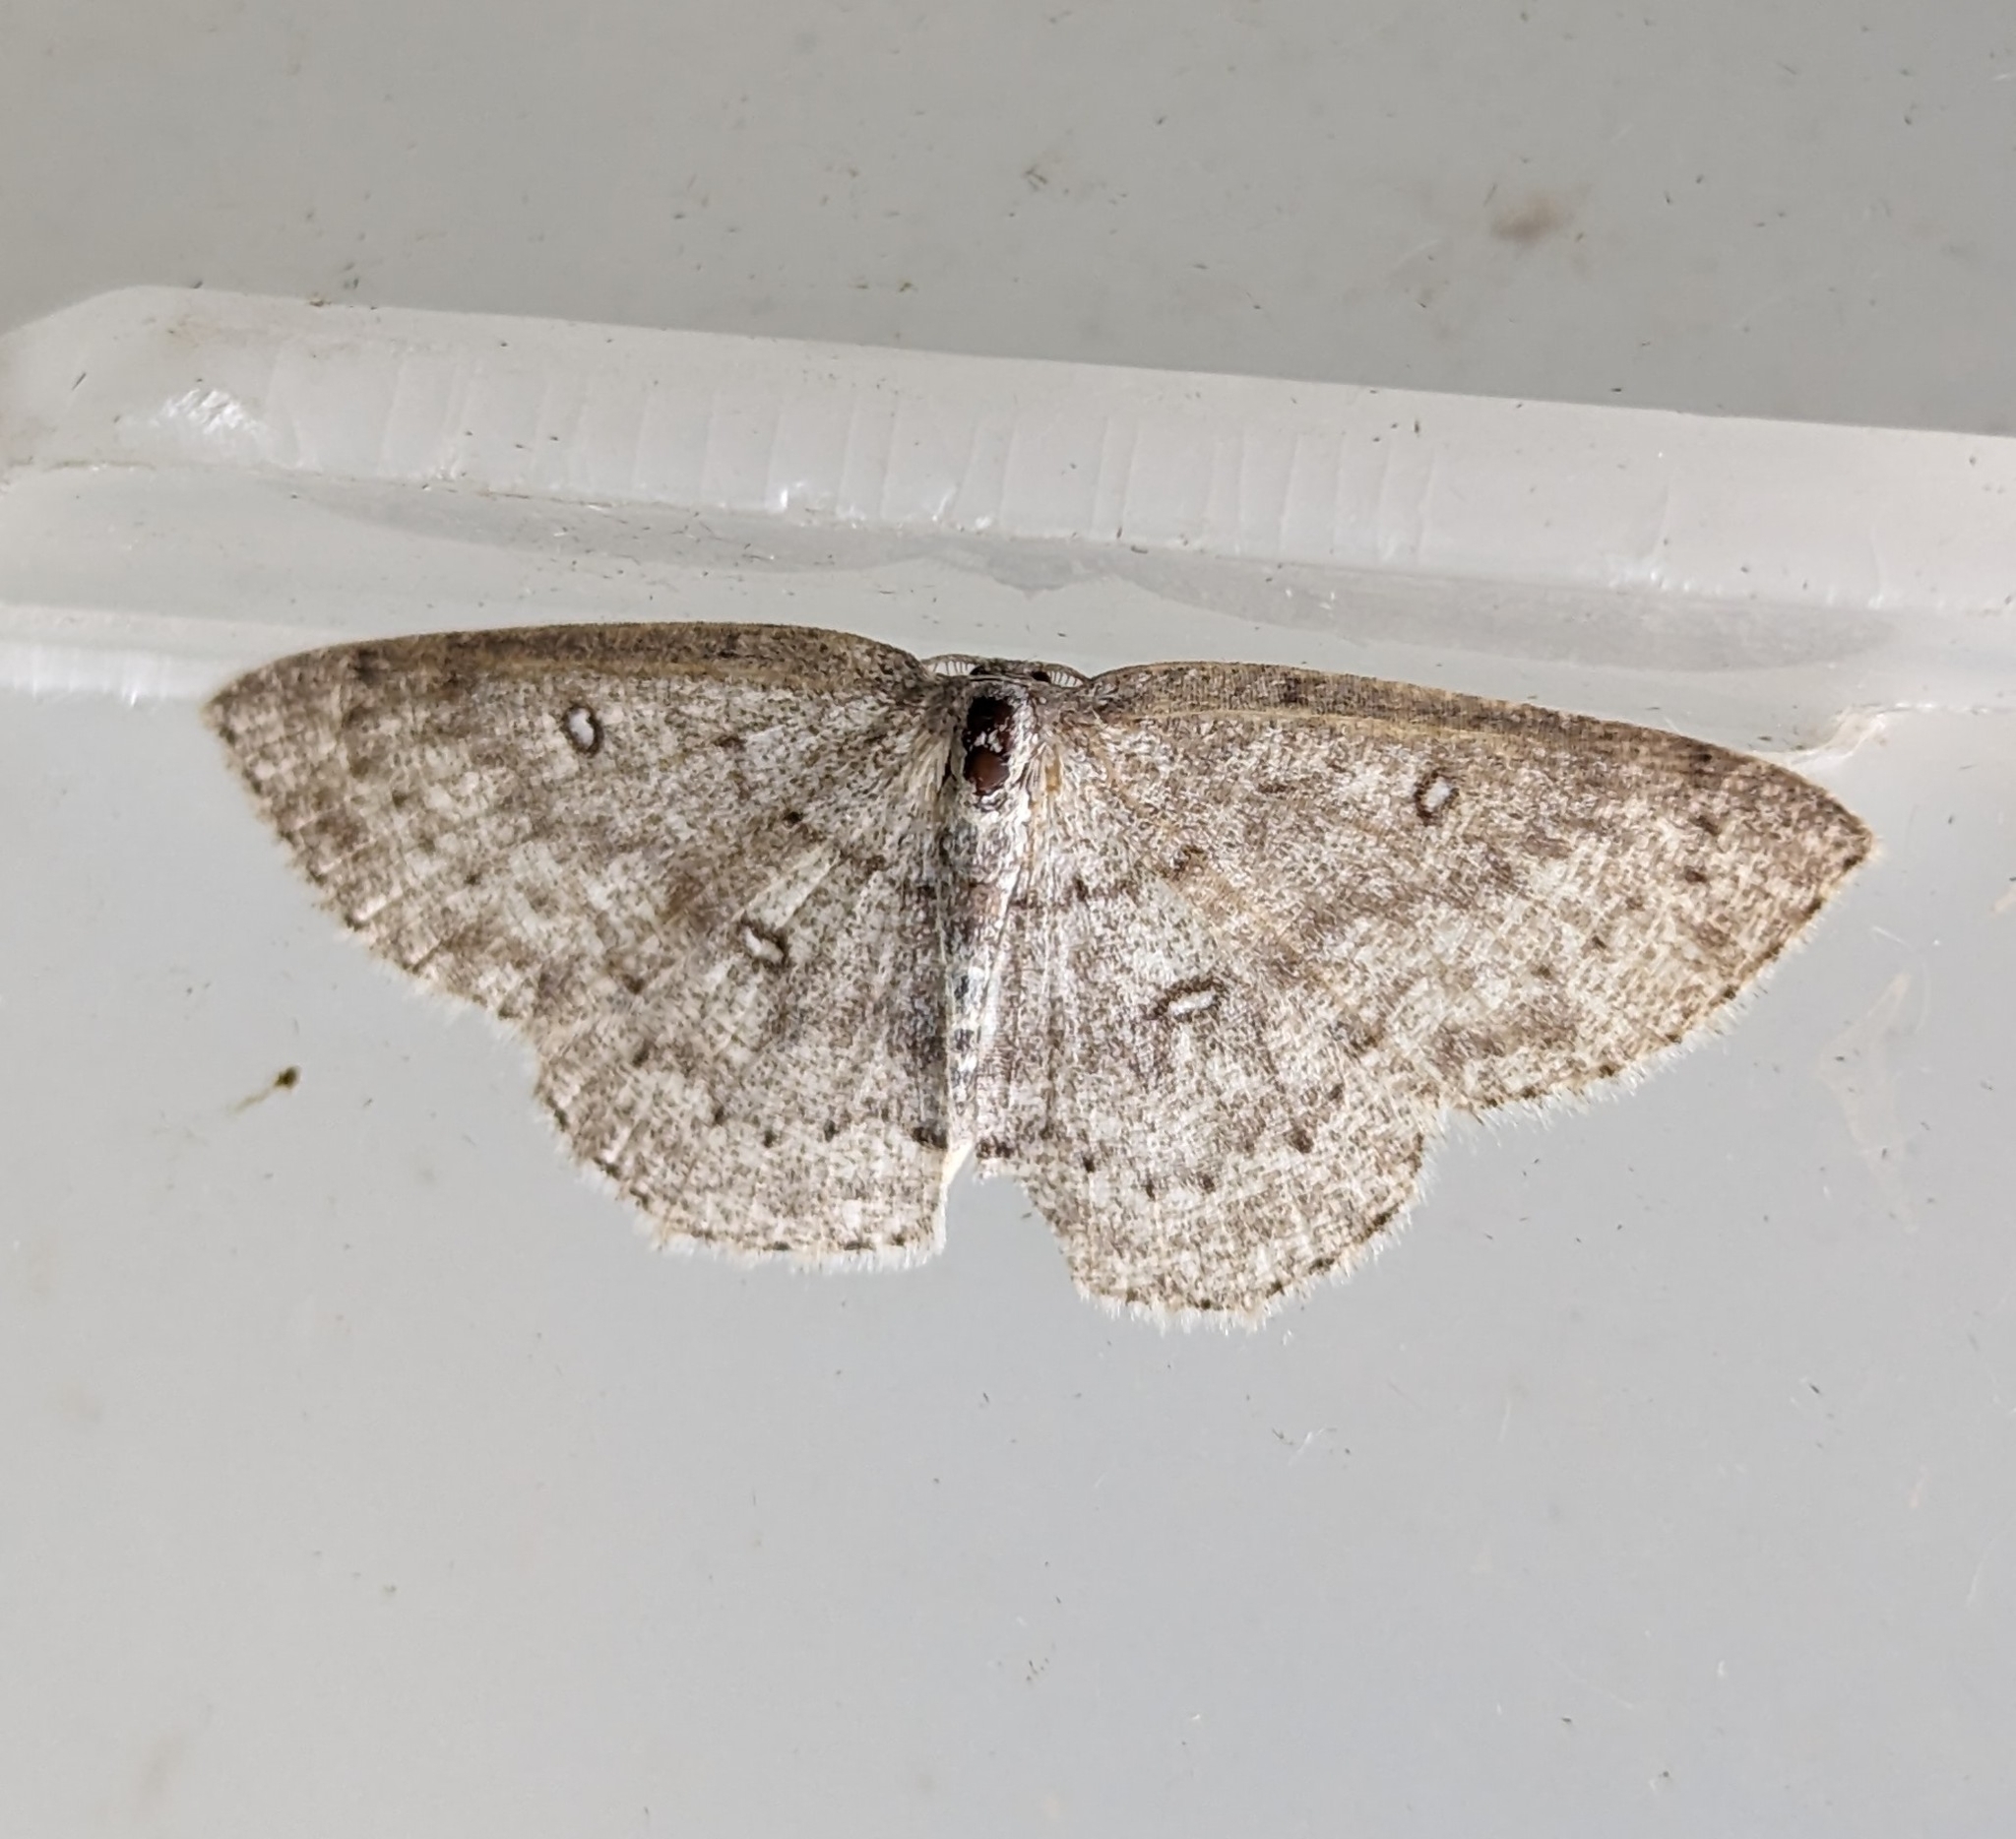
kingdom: Animalia
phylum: Arthropoda
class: Insecta
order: Lepidoptera
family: Geometridae
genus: Cyclophora
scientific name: Cyclophora pendulinaria
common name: Sweet fern geometer
